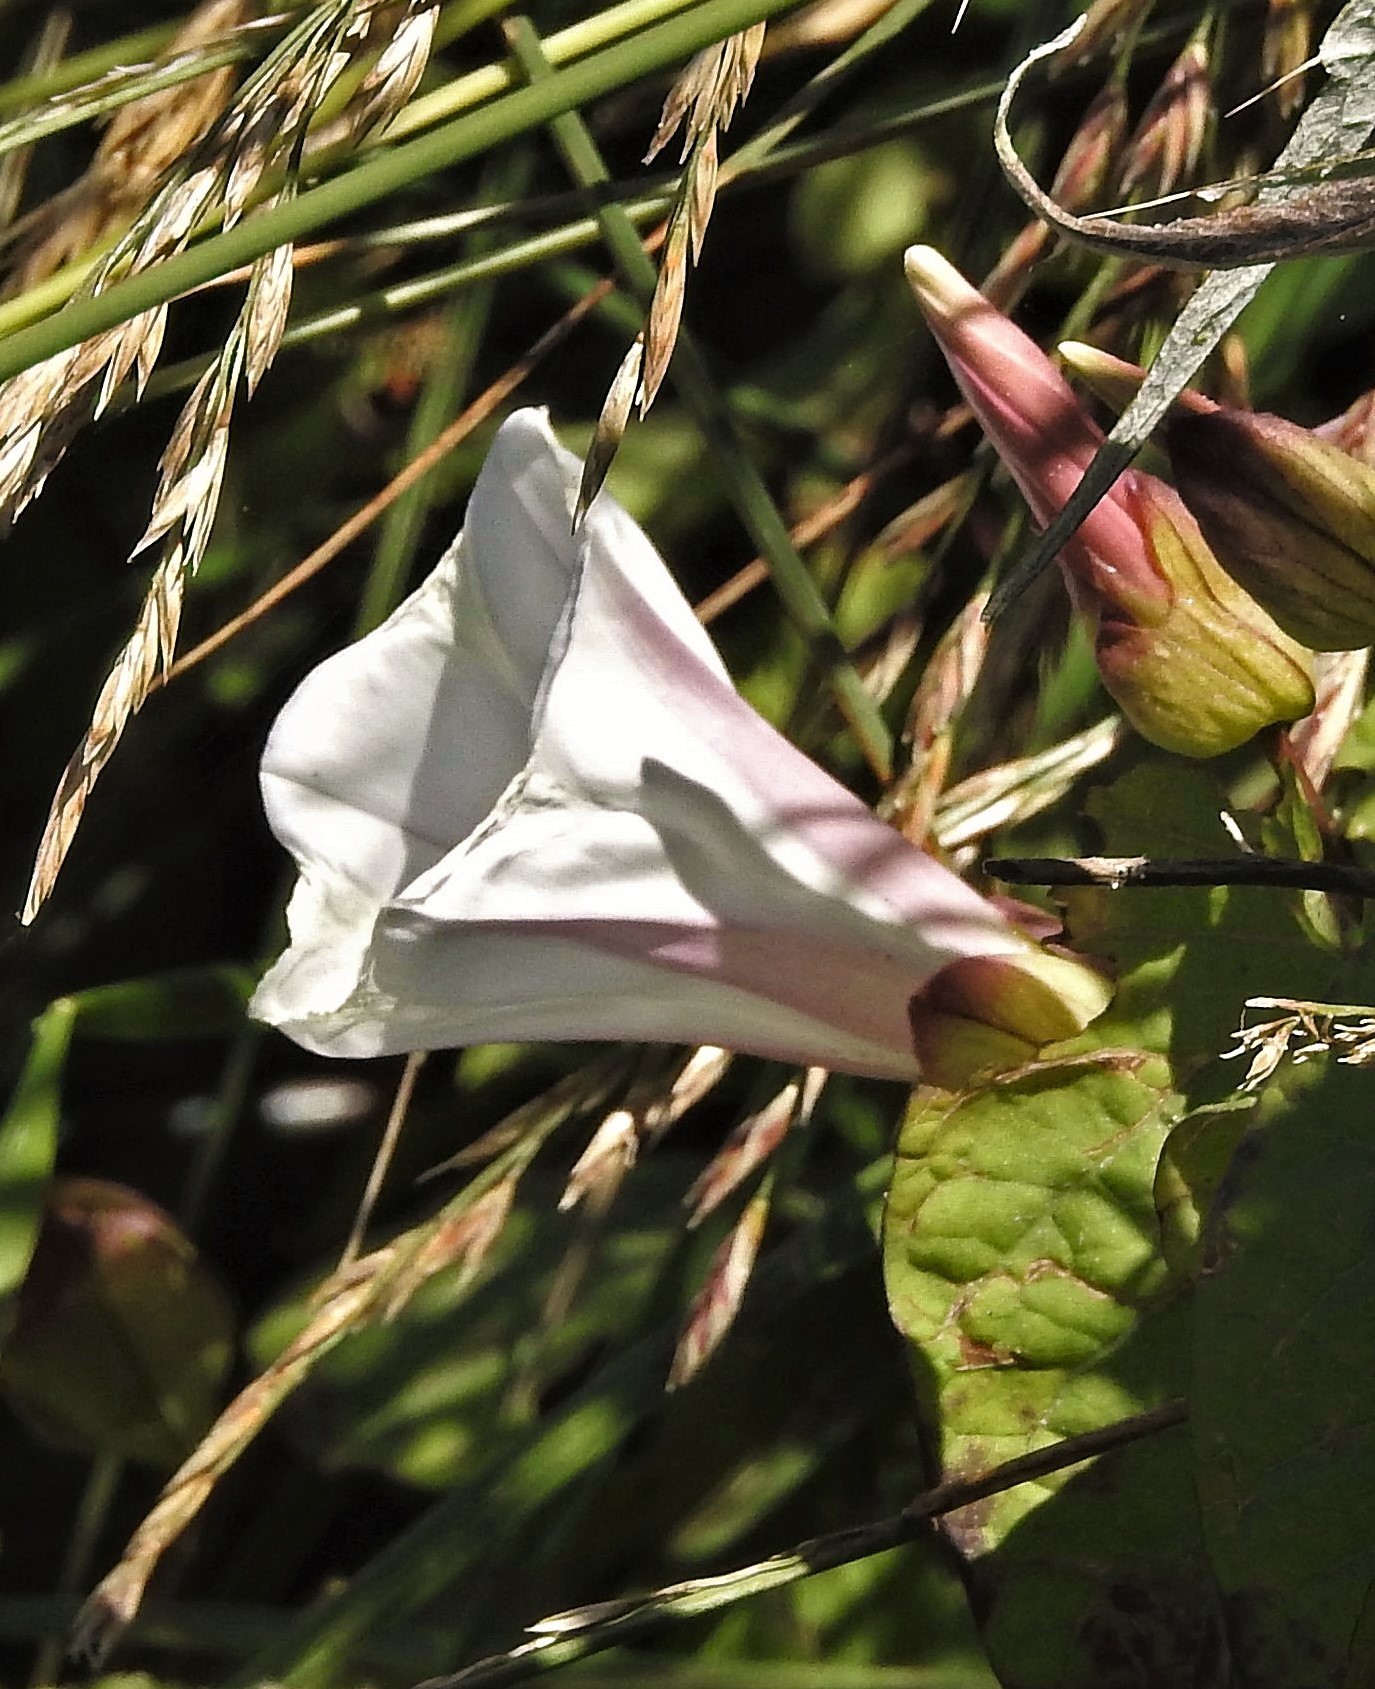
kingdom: Plantae
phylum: Tracheophyta
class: Magnoliopsida
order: Solanales
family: Convolvulaceae
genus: Calystegia
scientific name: Calystegia sepium
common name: Hedge bindweed
